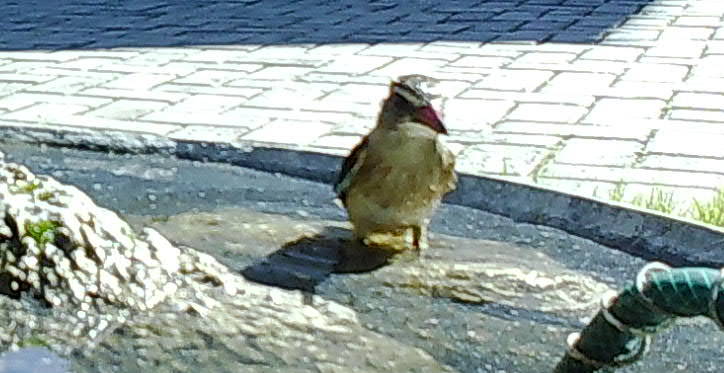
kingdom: Animalia
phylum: Chordata
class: Aves
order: Coraciiformes
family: Alcedinidae
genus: Halcyon
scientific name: Halcyon albiventris
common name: Brown-hooded kingfisher
